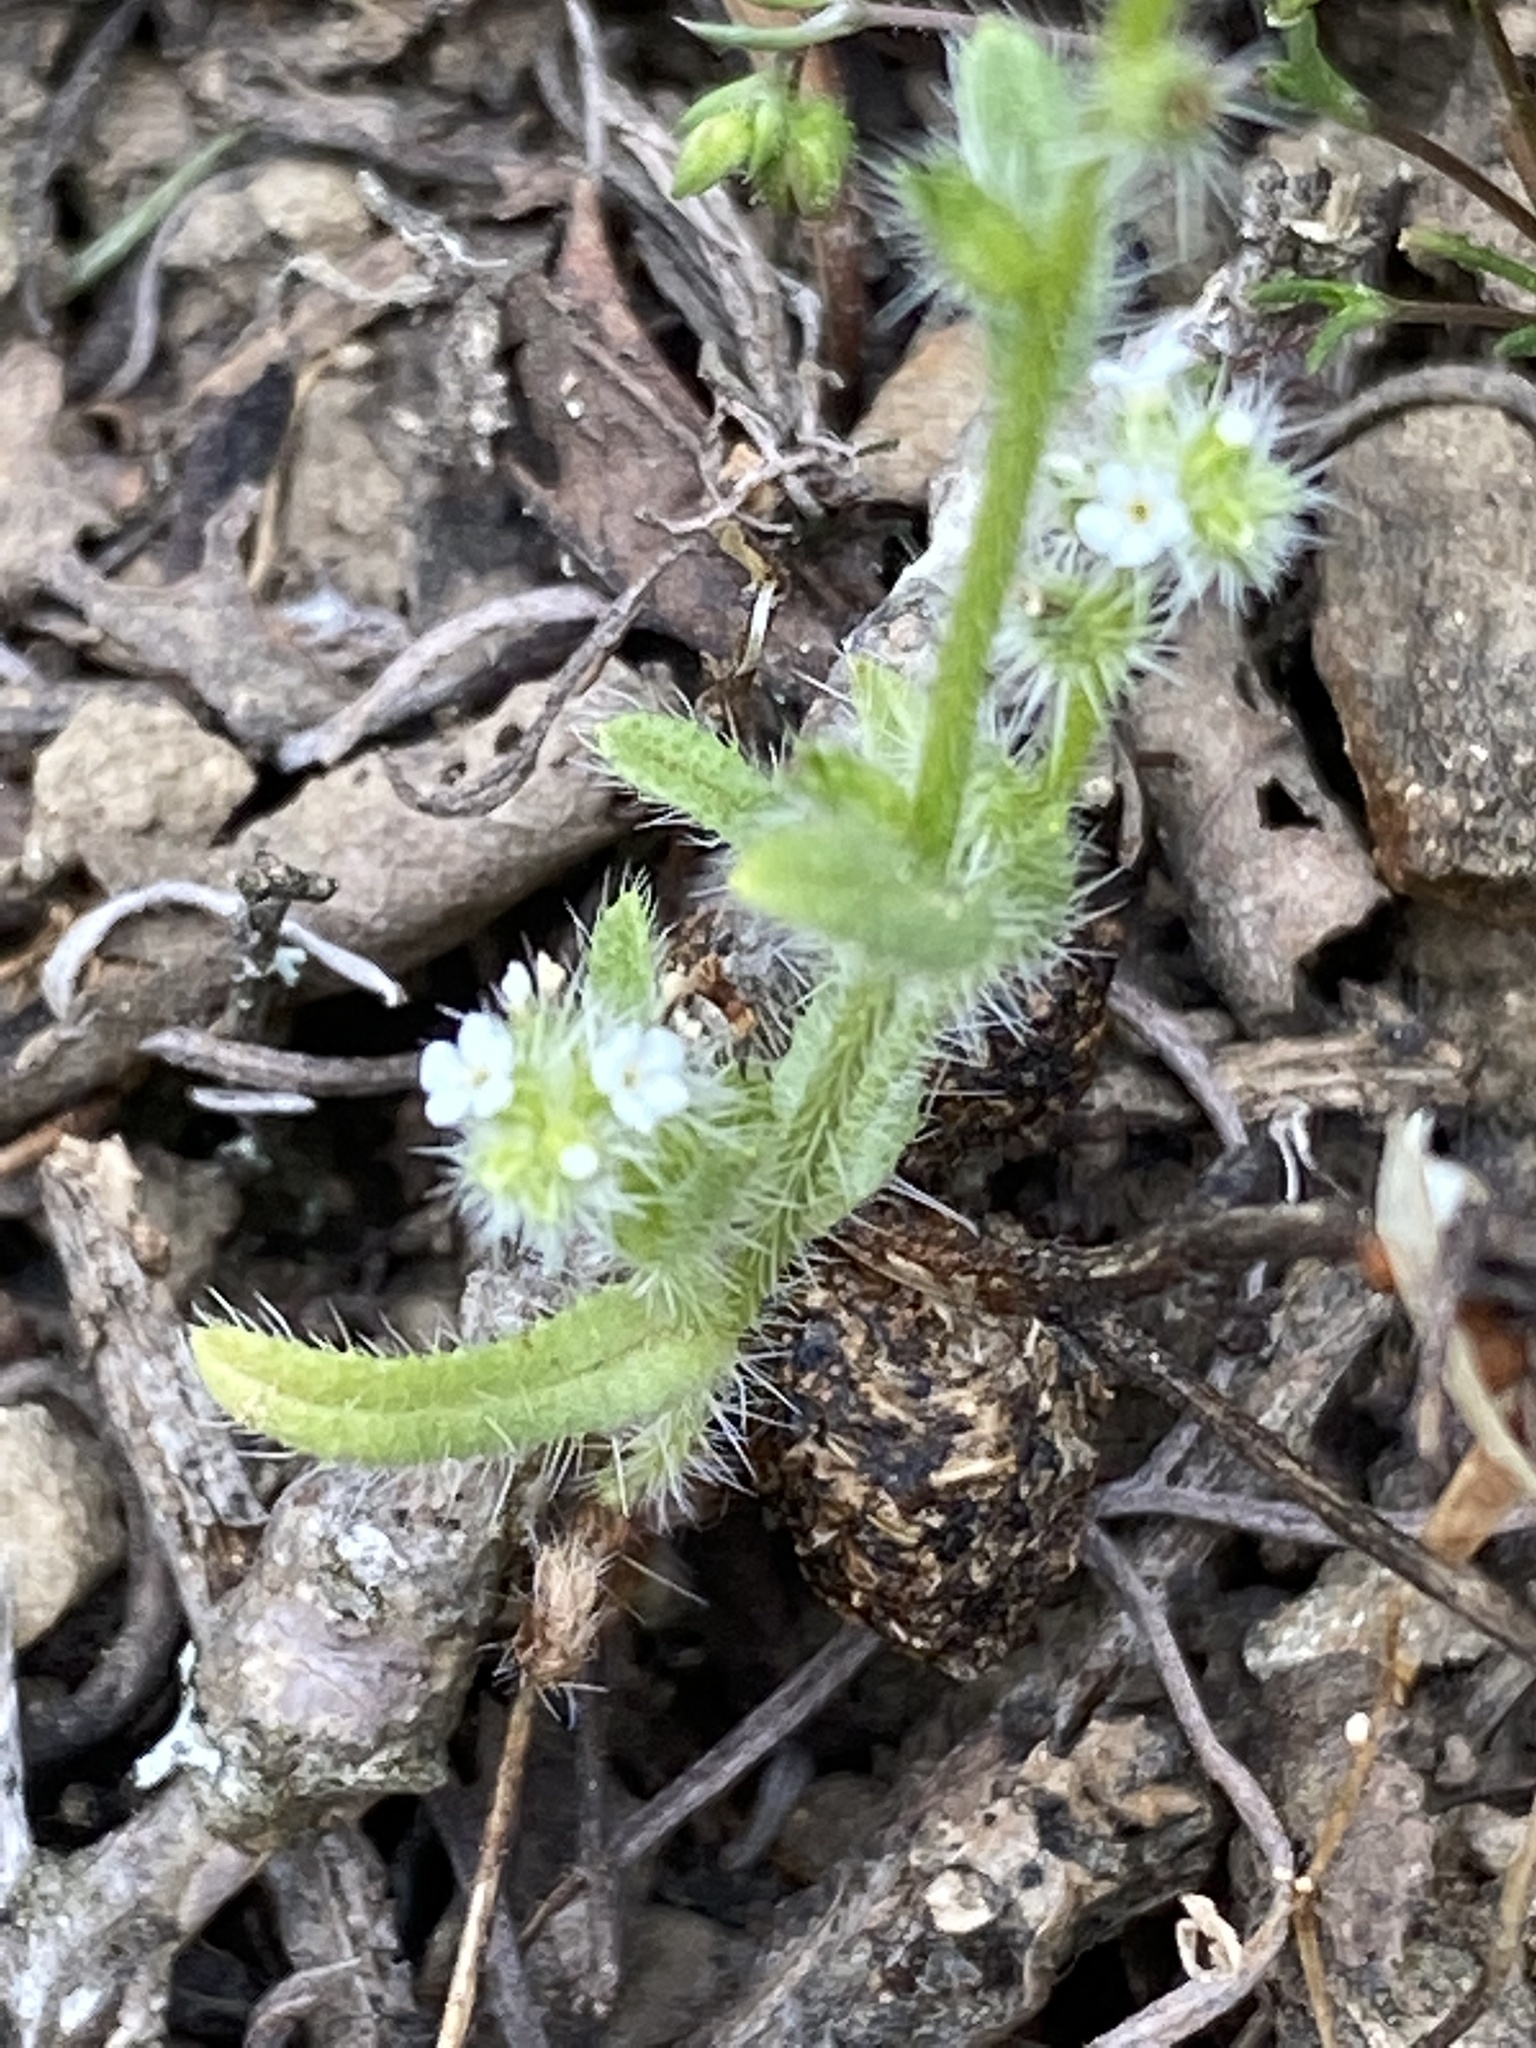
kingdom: Plantae
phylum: Tracheophyta
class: Magnoliopsida
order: Boraginales
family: Boraginaceae
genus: Cryptantha
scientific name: Cryptantha clevelandii
